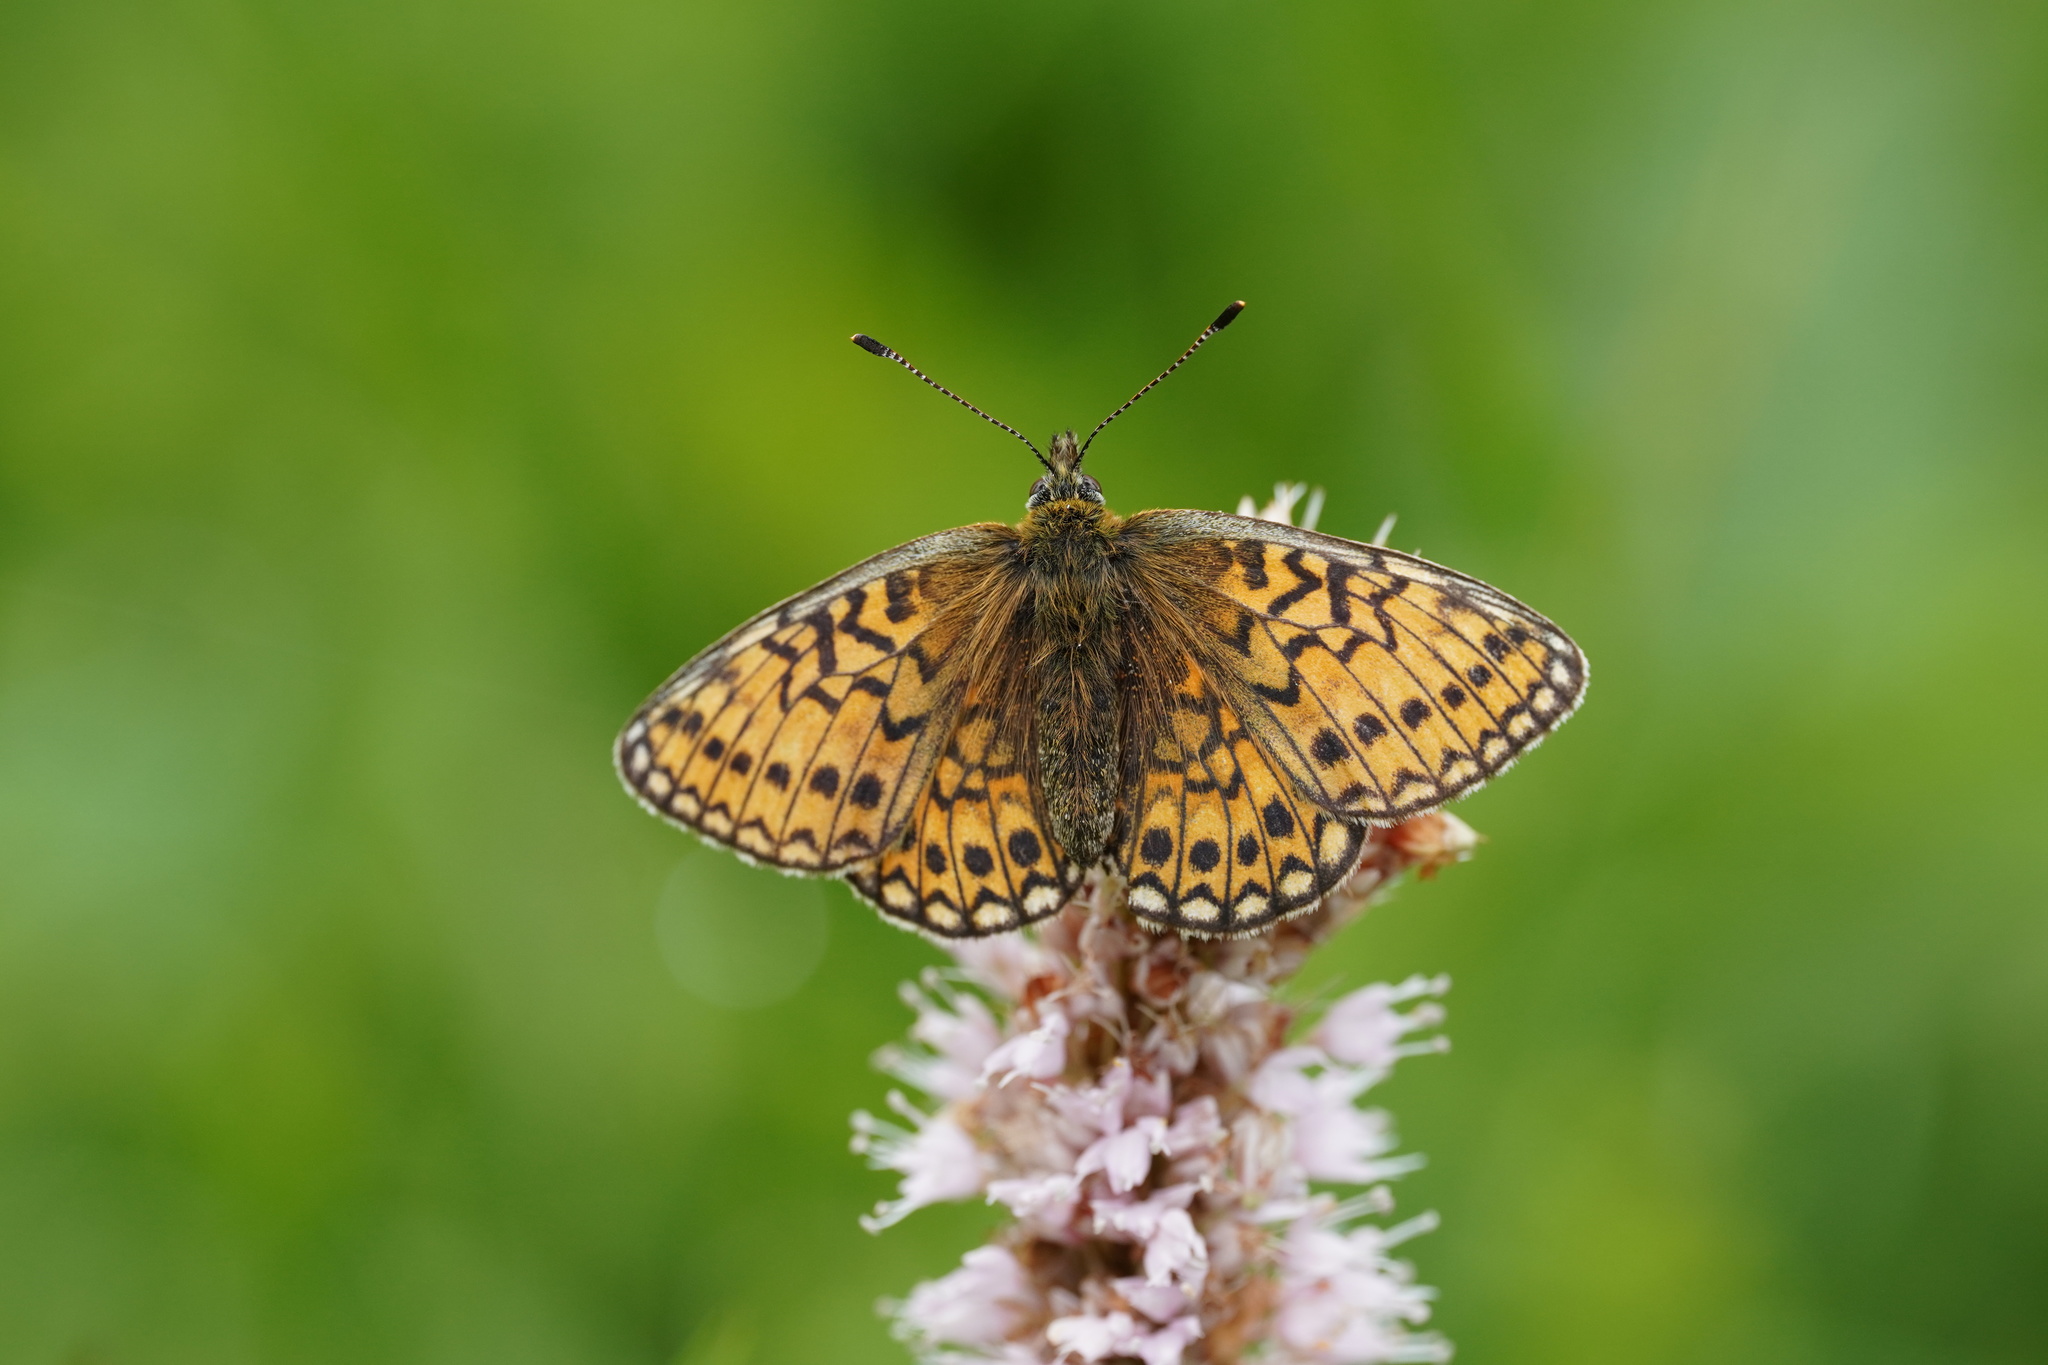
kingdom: Animalia
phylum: Arthropoda
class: Insecta
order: Lepidoptera
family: Nymphalidae
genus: Boloria
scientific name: Boloria eunomia
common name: Bog fritillary
